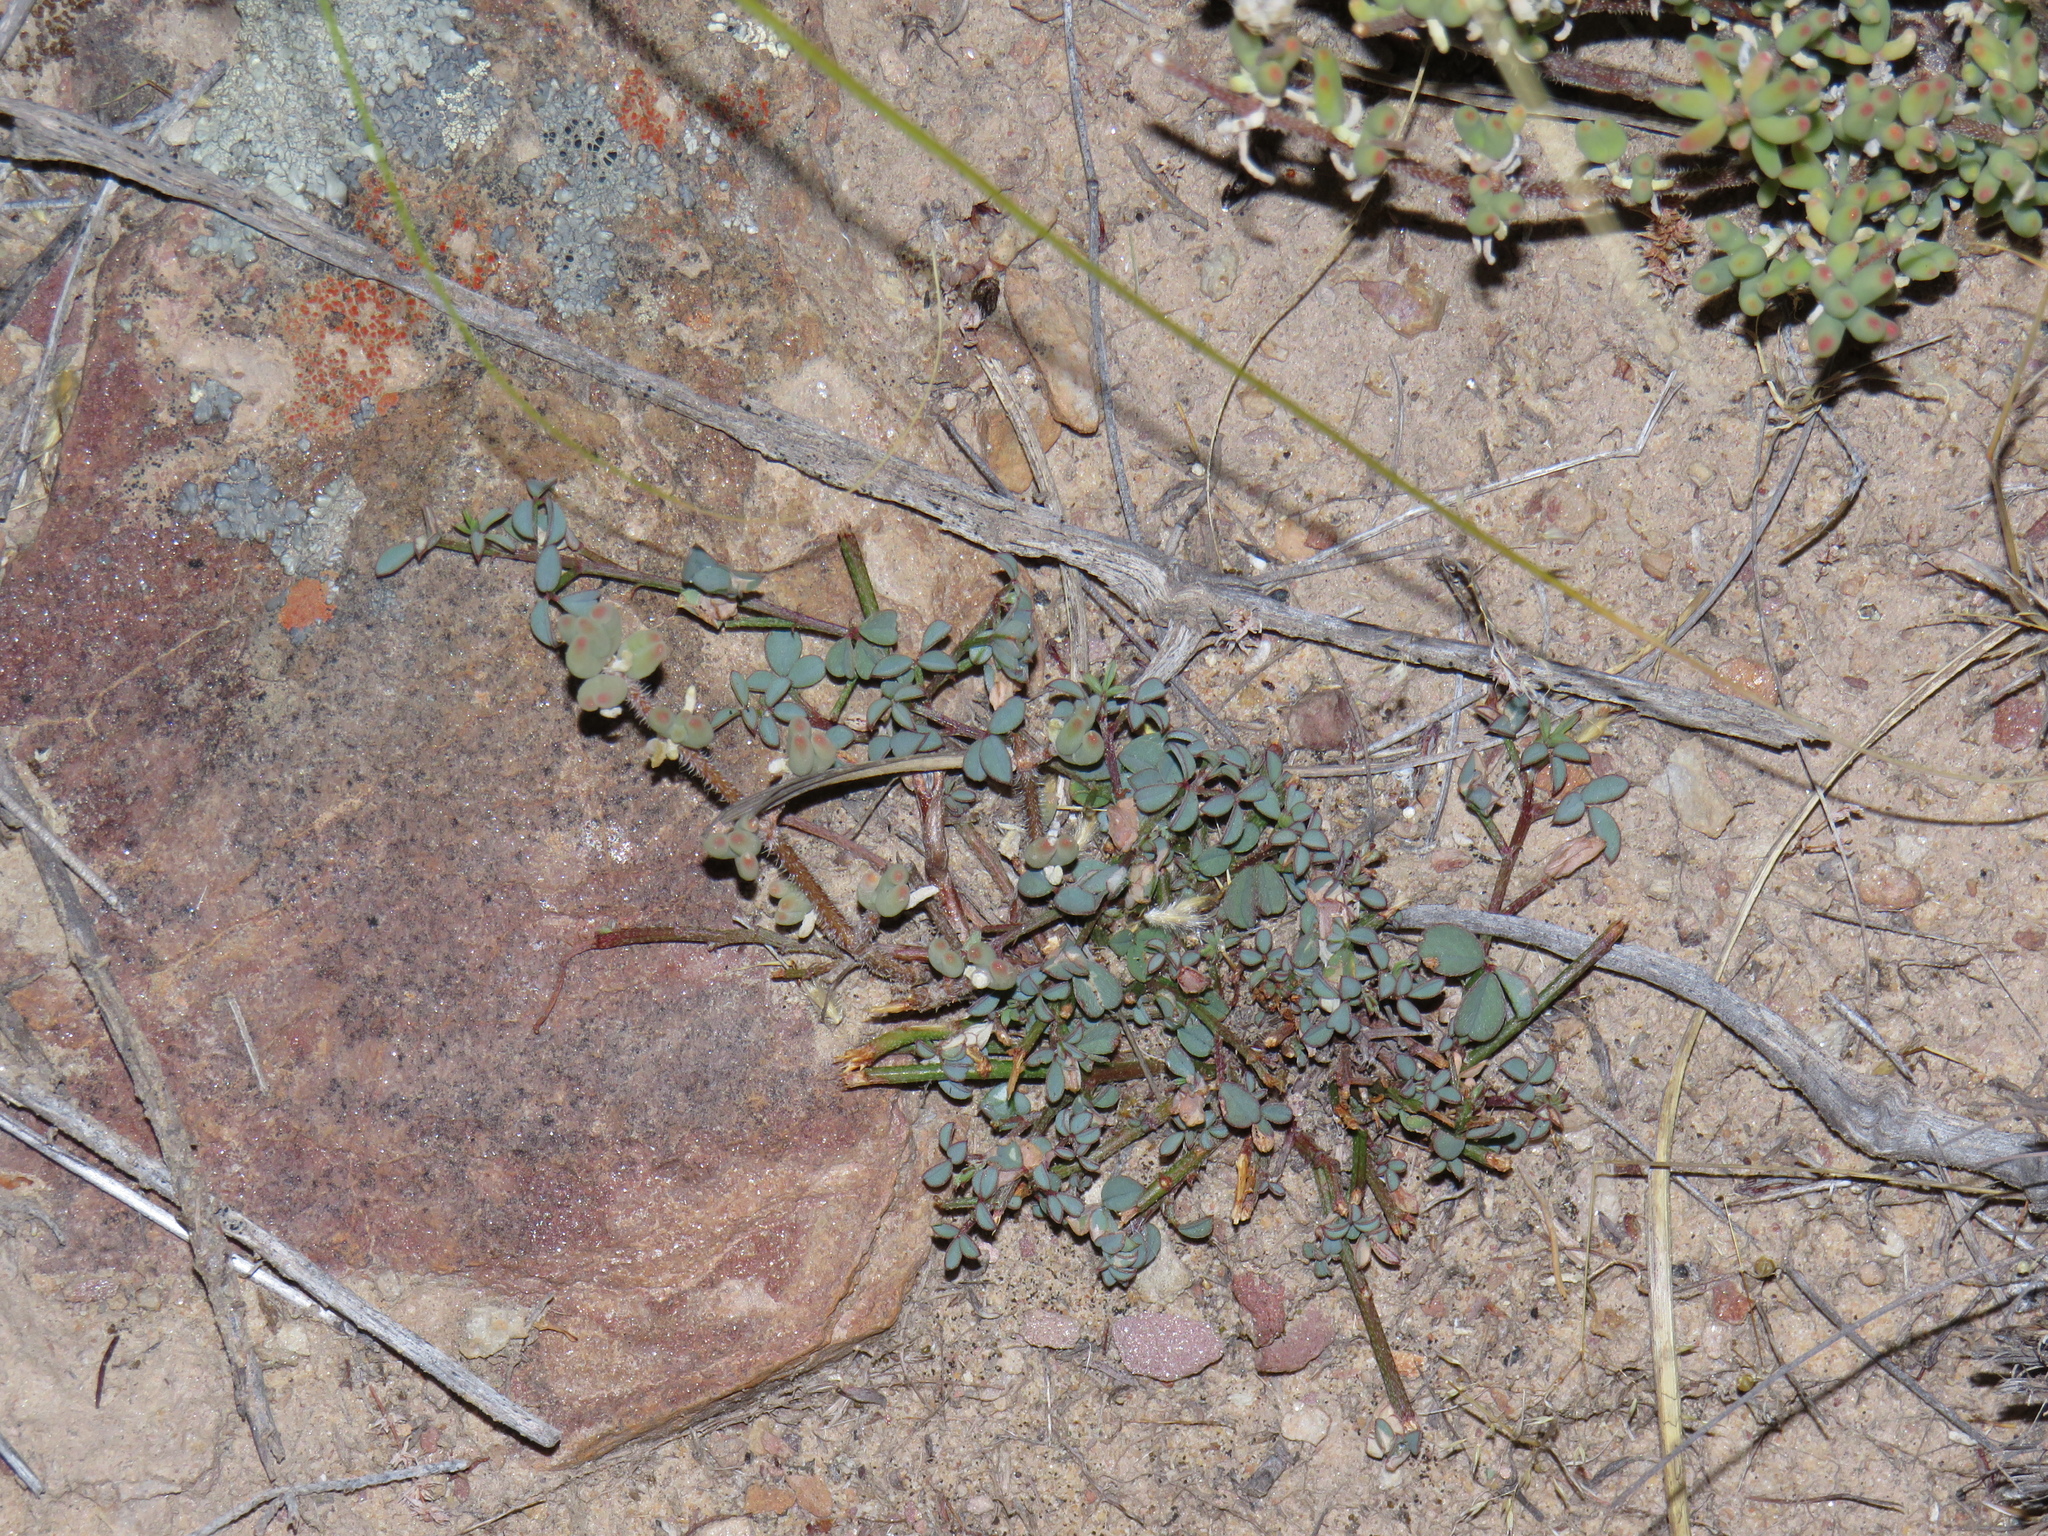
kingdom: Plantae
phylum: Tracheophyta
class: Magnoliopsida
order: Fabales
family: Fabaceae
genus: Indigofera
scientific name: Indigofera heterophylla
